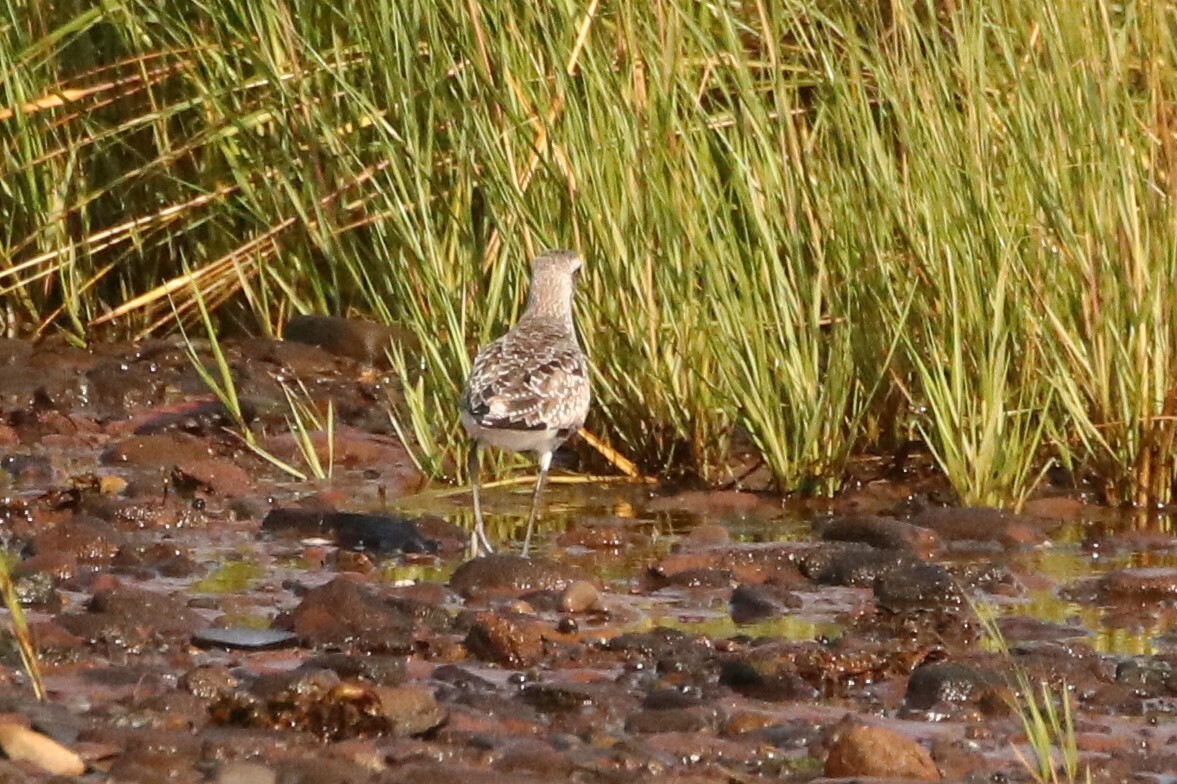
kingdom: Animalia
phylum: Chordata
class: Aves
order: Charadriiformes
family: Charadriidae
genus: Pluvialis
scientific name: Pluvialis squatarola
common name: Grey plover
